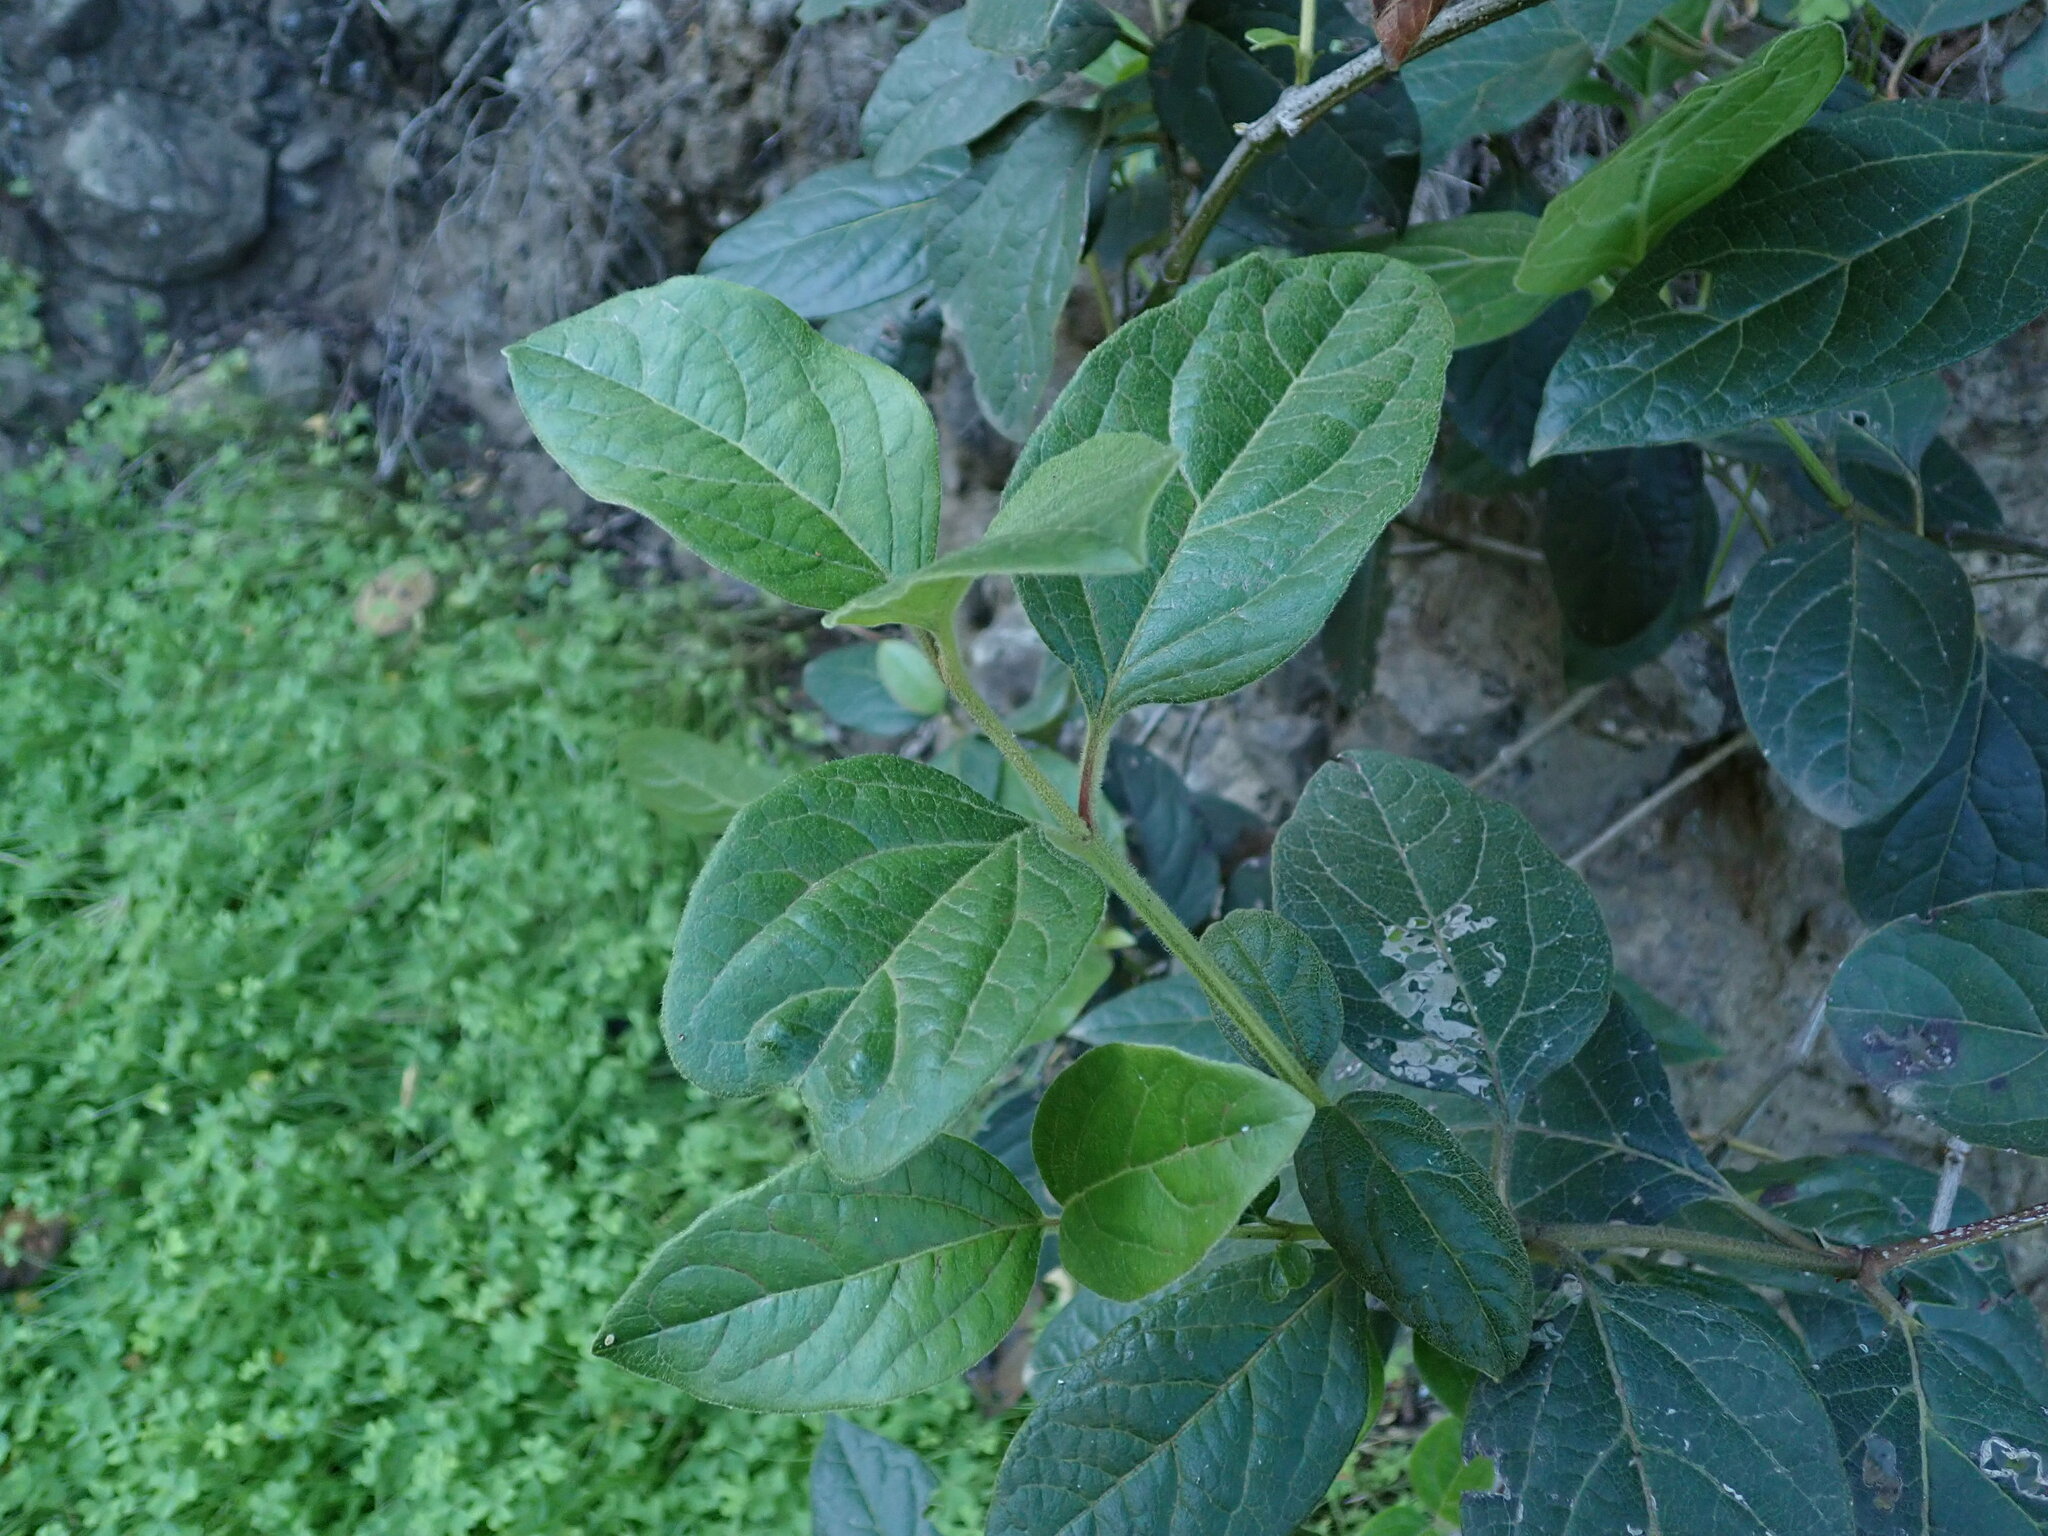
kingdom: Plantae
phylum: Tracheophyta
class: Magnoliopsida
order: Dipsacales
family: Viburnaceae
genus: Viburnum
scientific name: Viburnum rugosum
